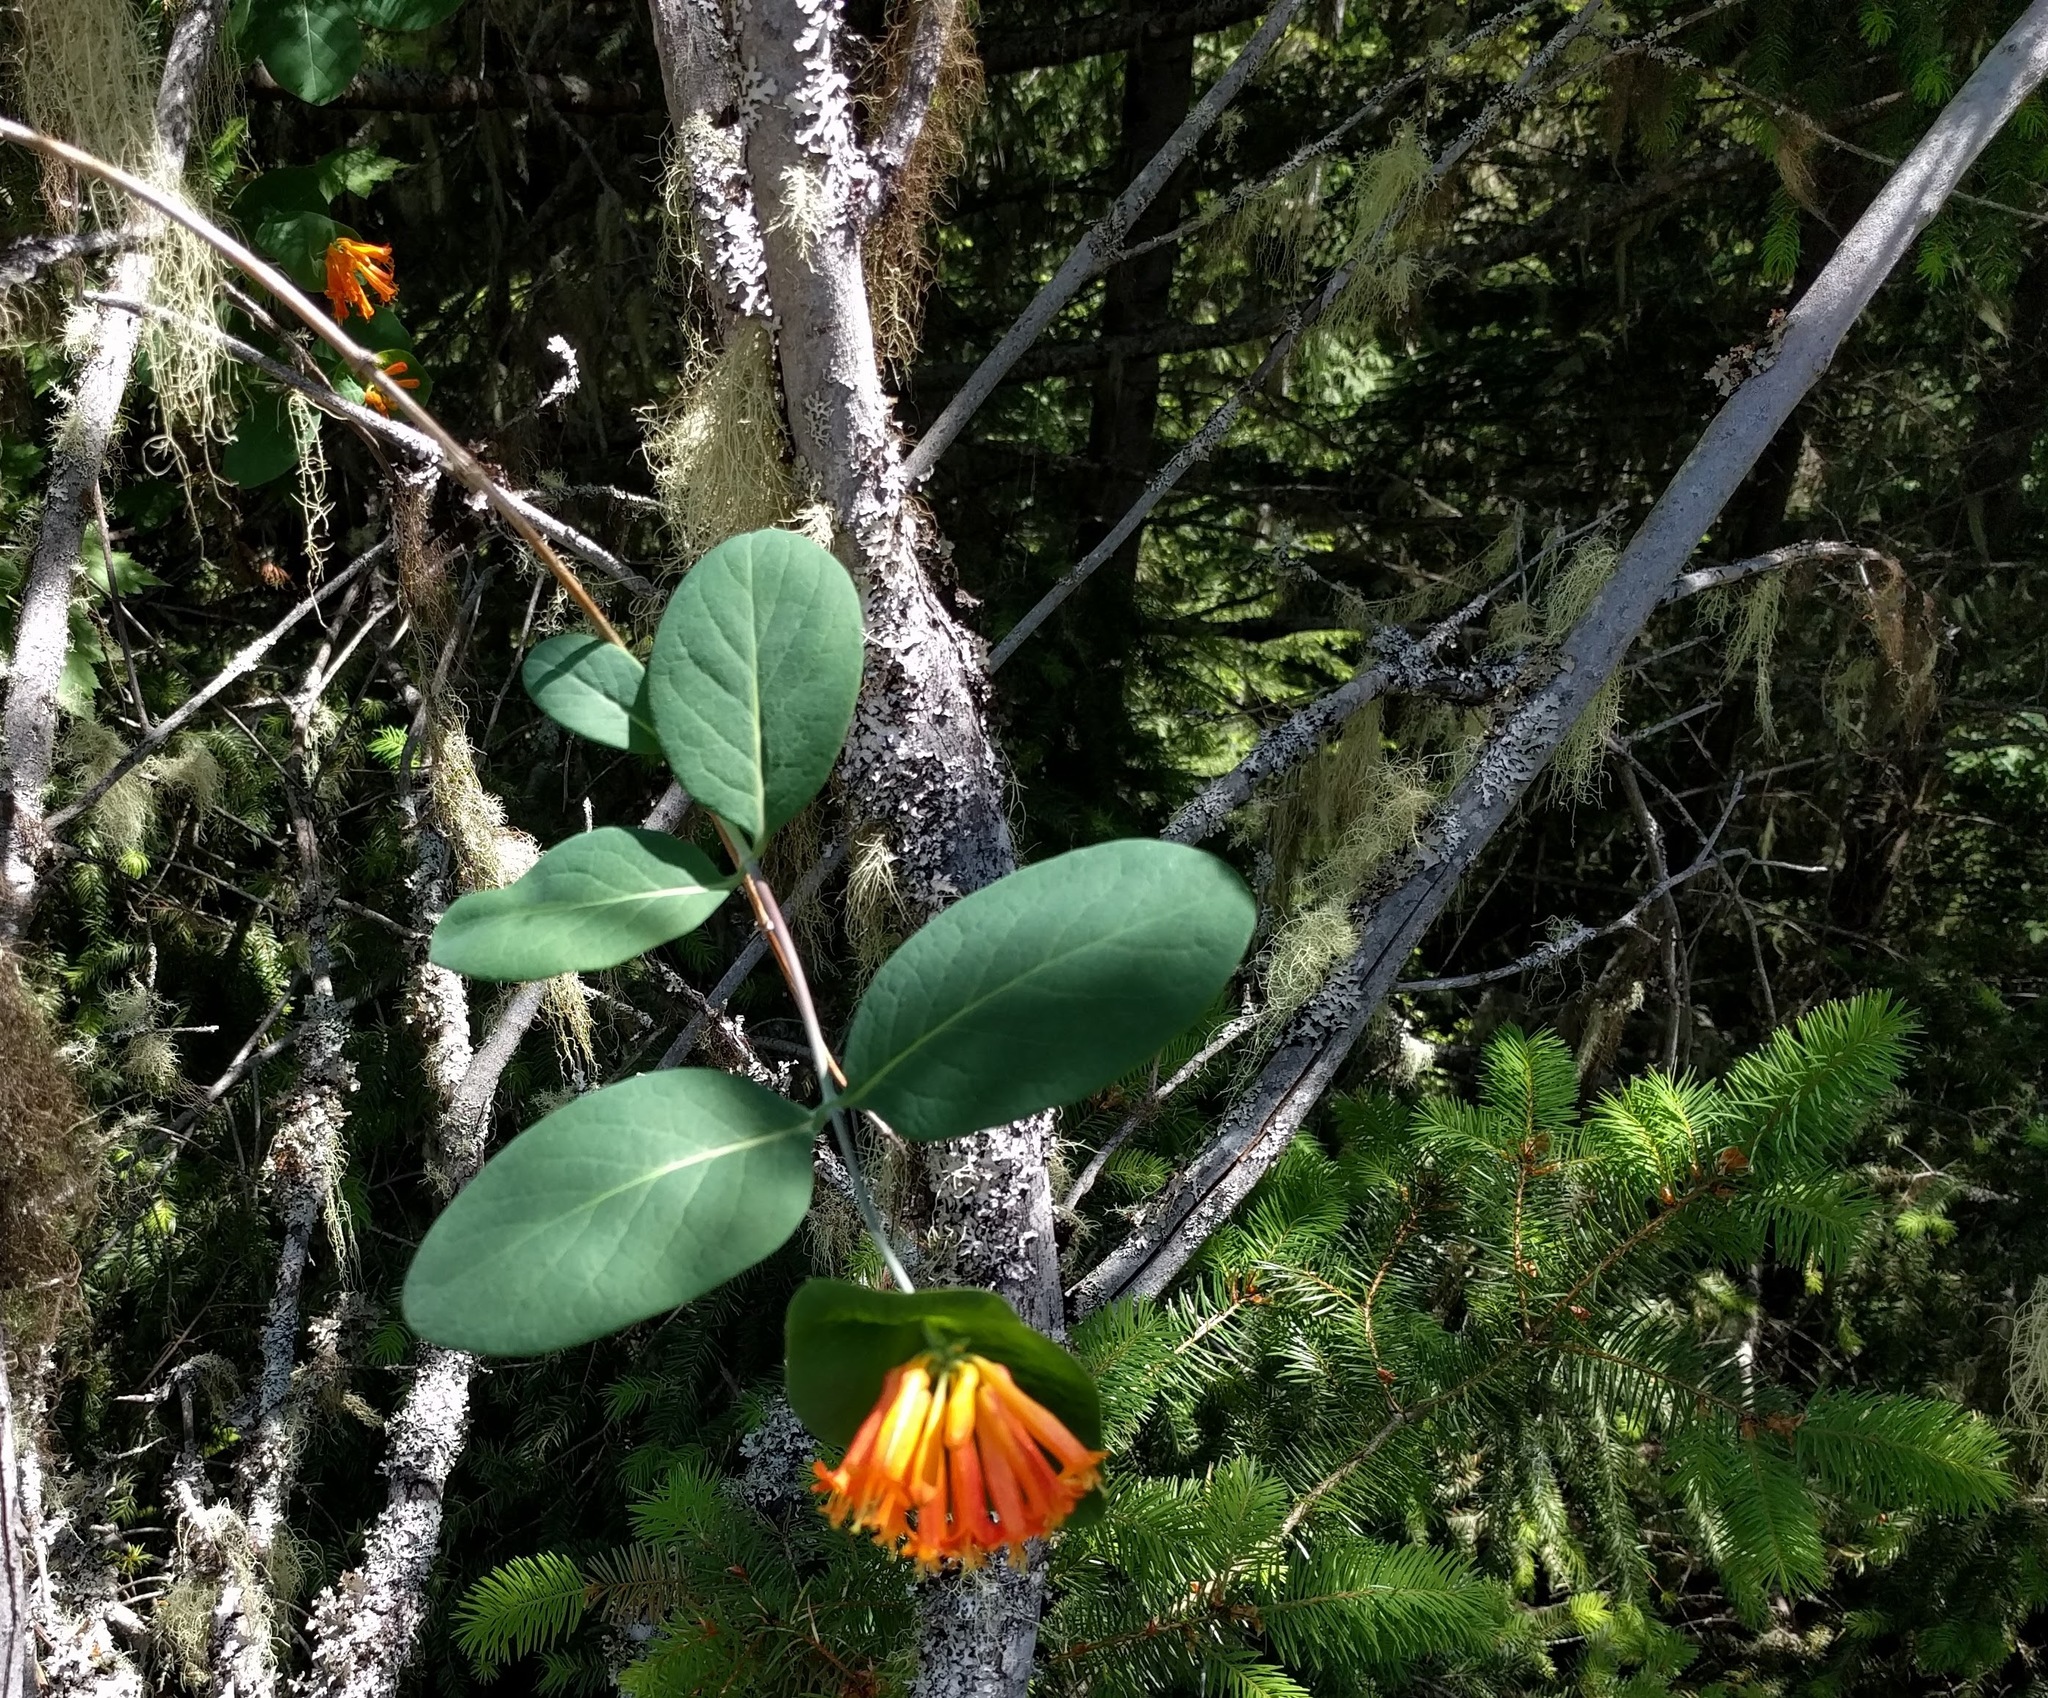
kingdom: Plantae
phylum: Tracheophyta
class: Magnoliopsida
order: Dipsacales
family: Caprifoliaceae
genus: Lonicera
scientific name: Lonicera ciliosa
